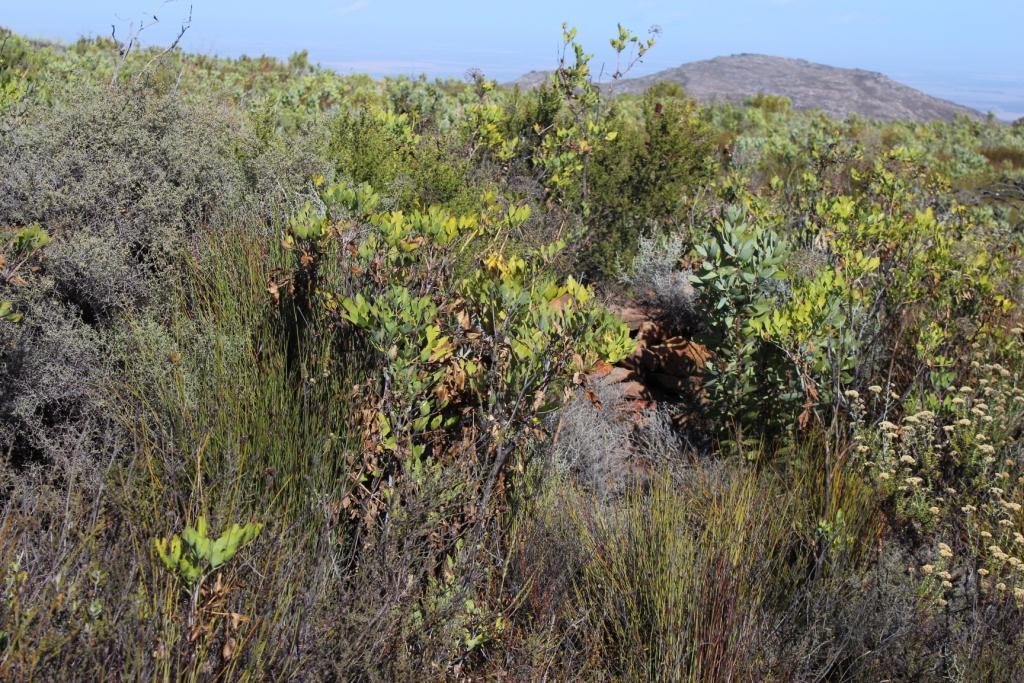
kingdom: Plantae
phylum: Tracheophyta
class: Magnoliopsida
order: Apiales
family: Apiaceae
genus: Notobubon
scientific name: Notobubon galbanum
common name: Blisterbush
